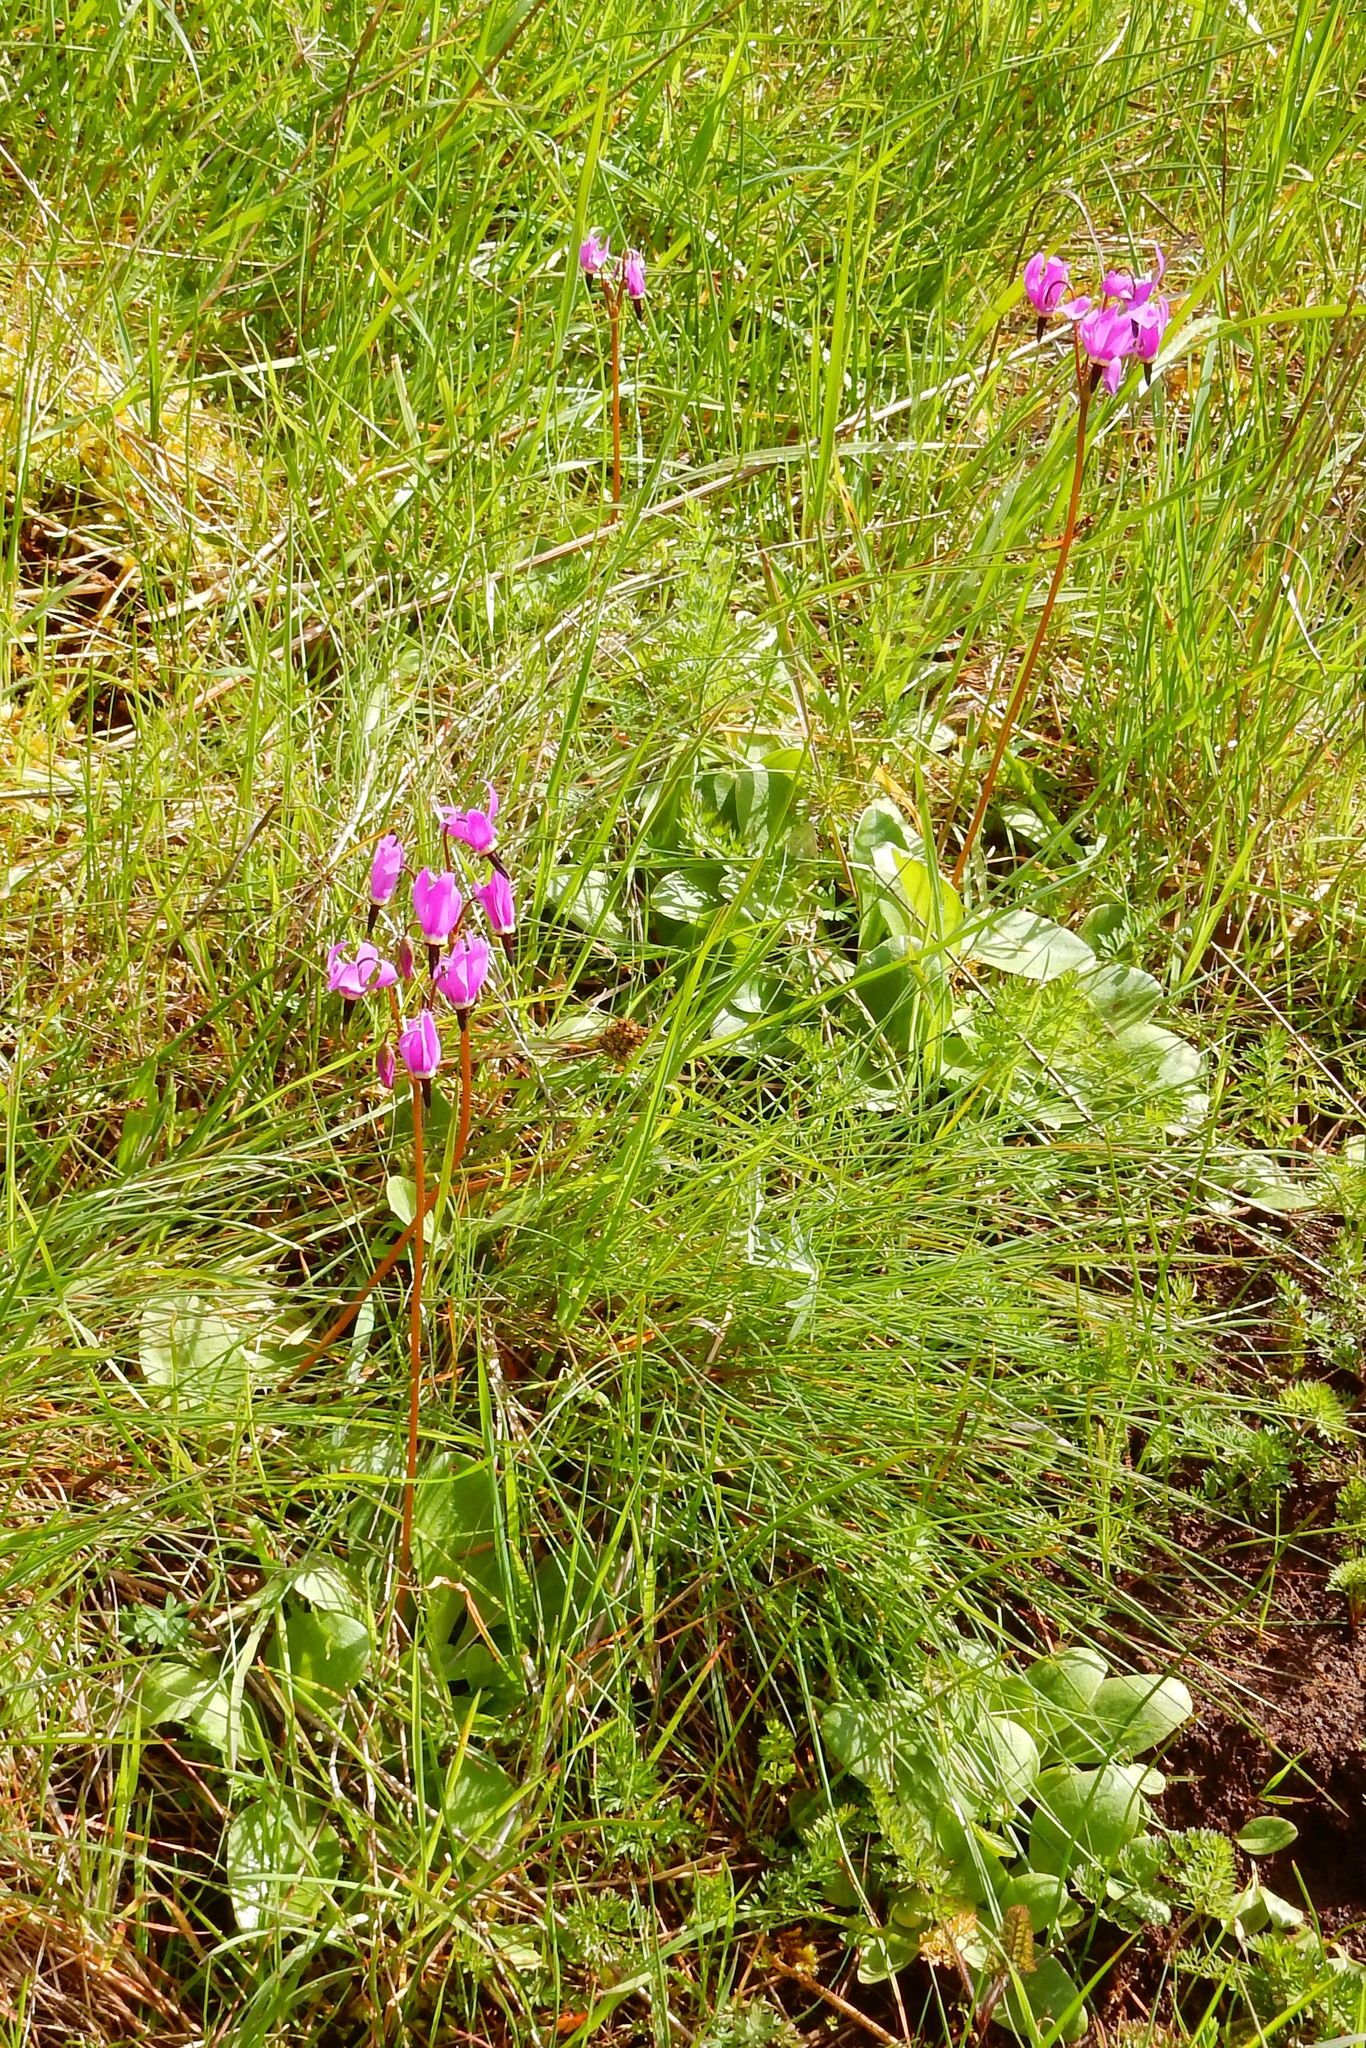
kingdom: Plantae
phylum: Tracheophyta
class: Magnoliopsida
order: Ericales
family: Primulaceae
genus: Dodecatheon
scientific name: Dodecatheon hendersonii
